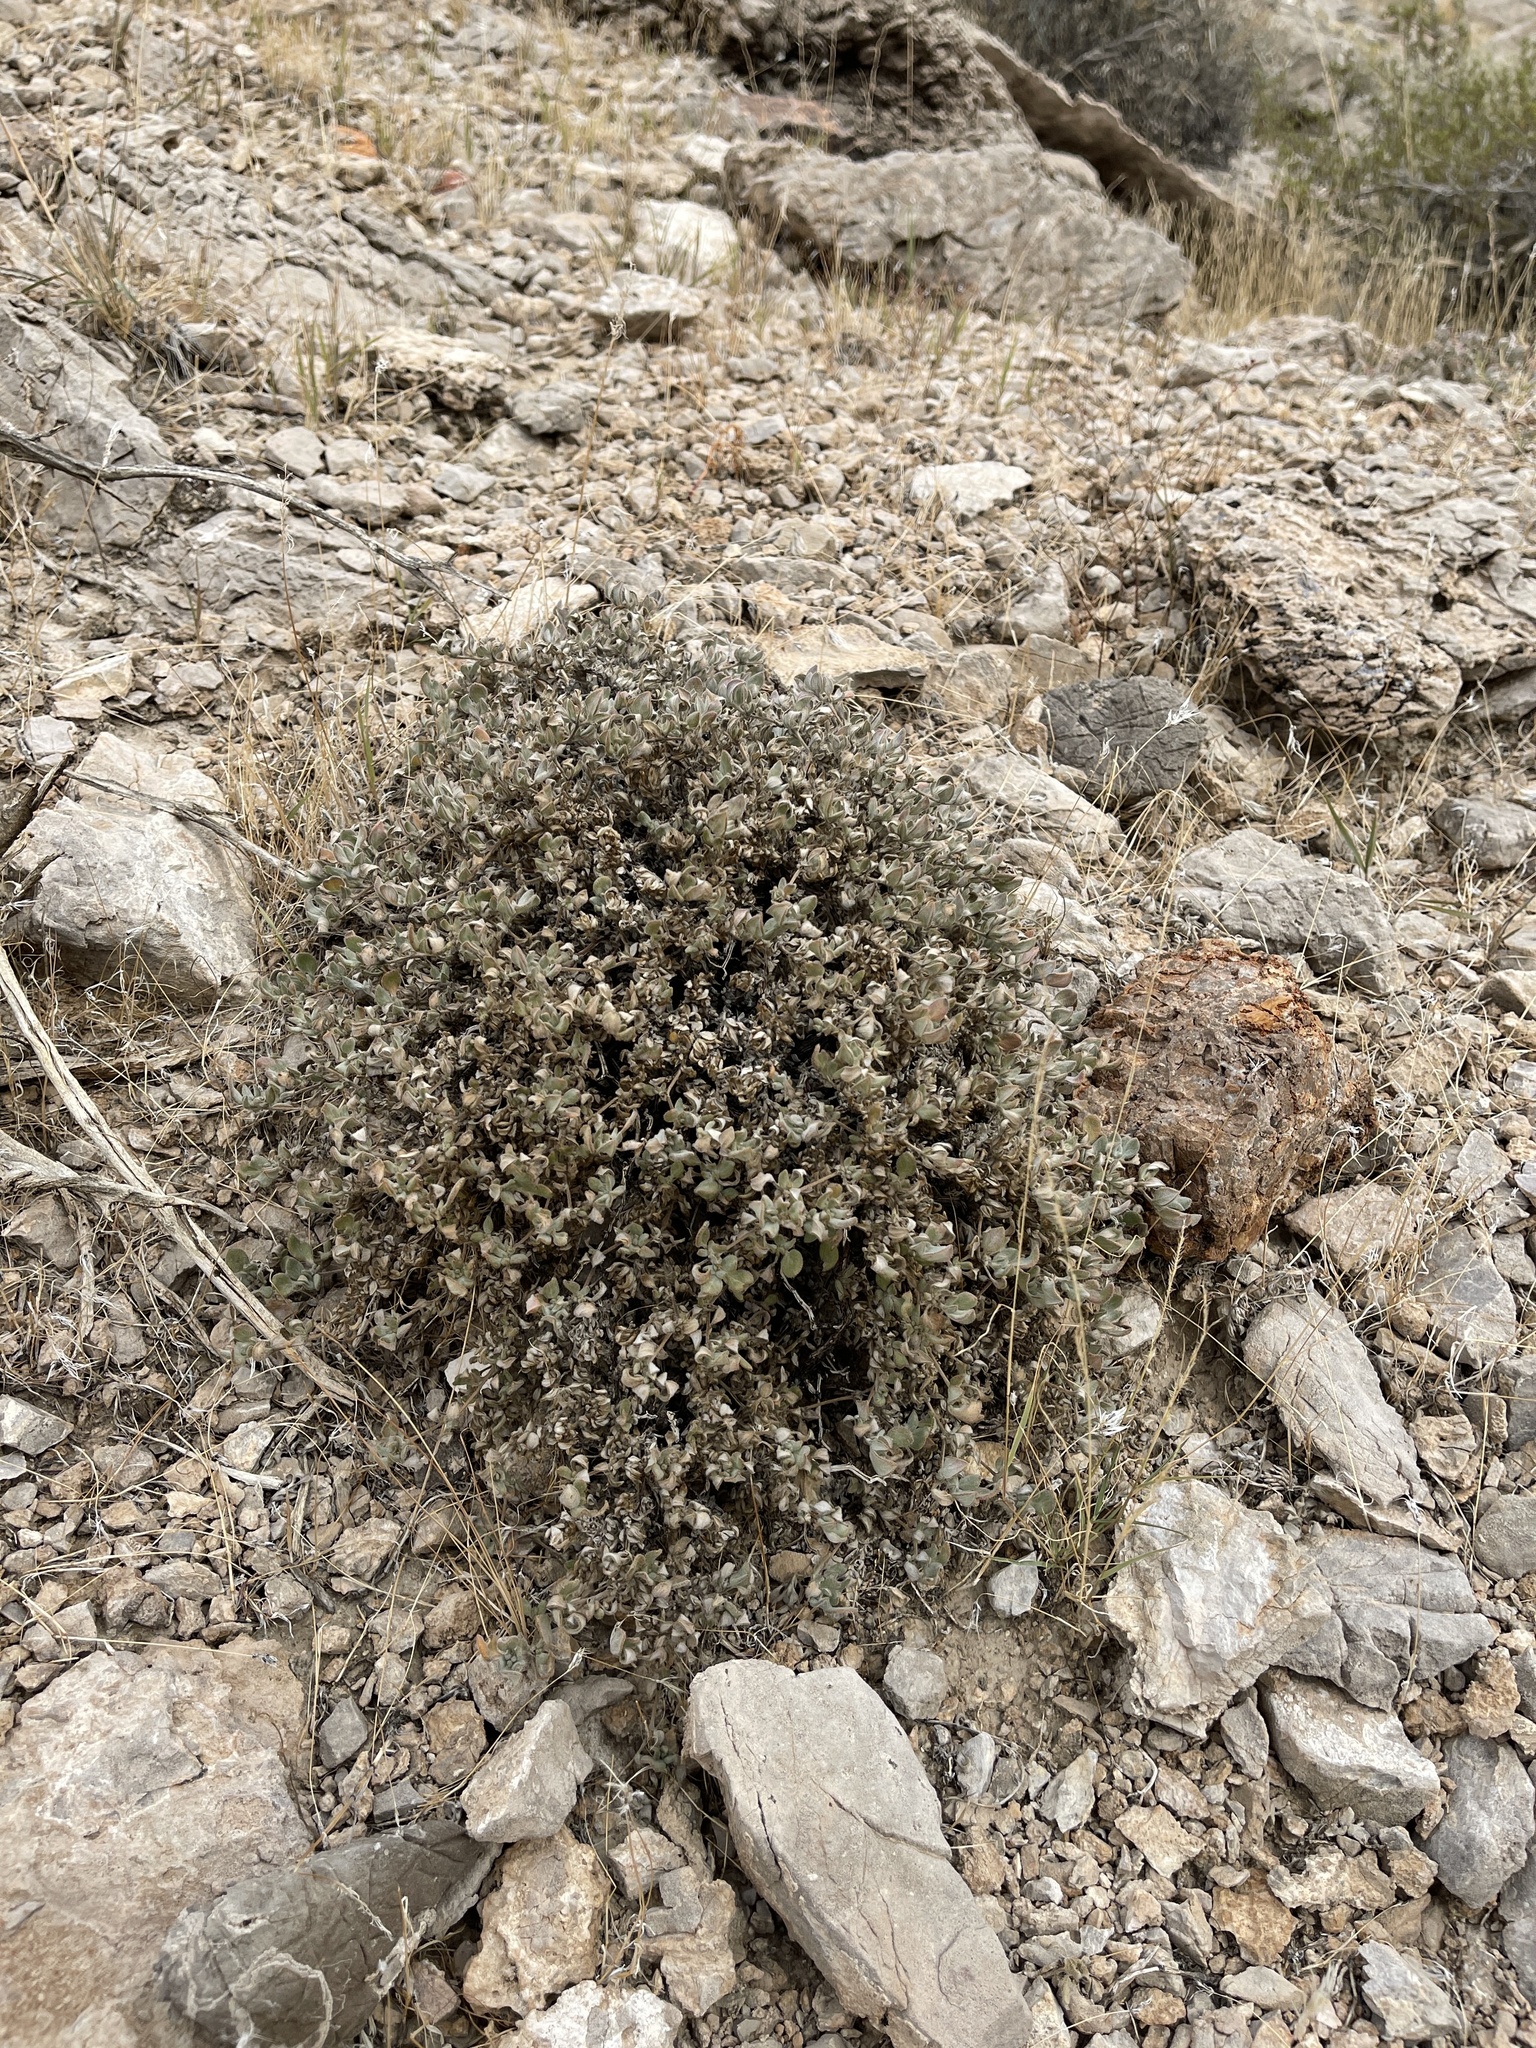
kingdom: Plantae
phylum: Tracheophyta
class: Magnoliopsida
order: Boraginales
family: Ehretiaceae
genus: Tiquilia
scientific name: Tiquilia canescens
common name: Hairy tiquilia
